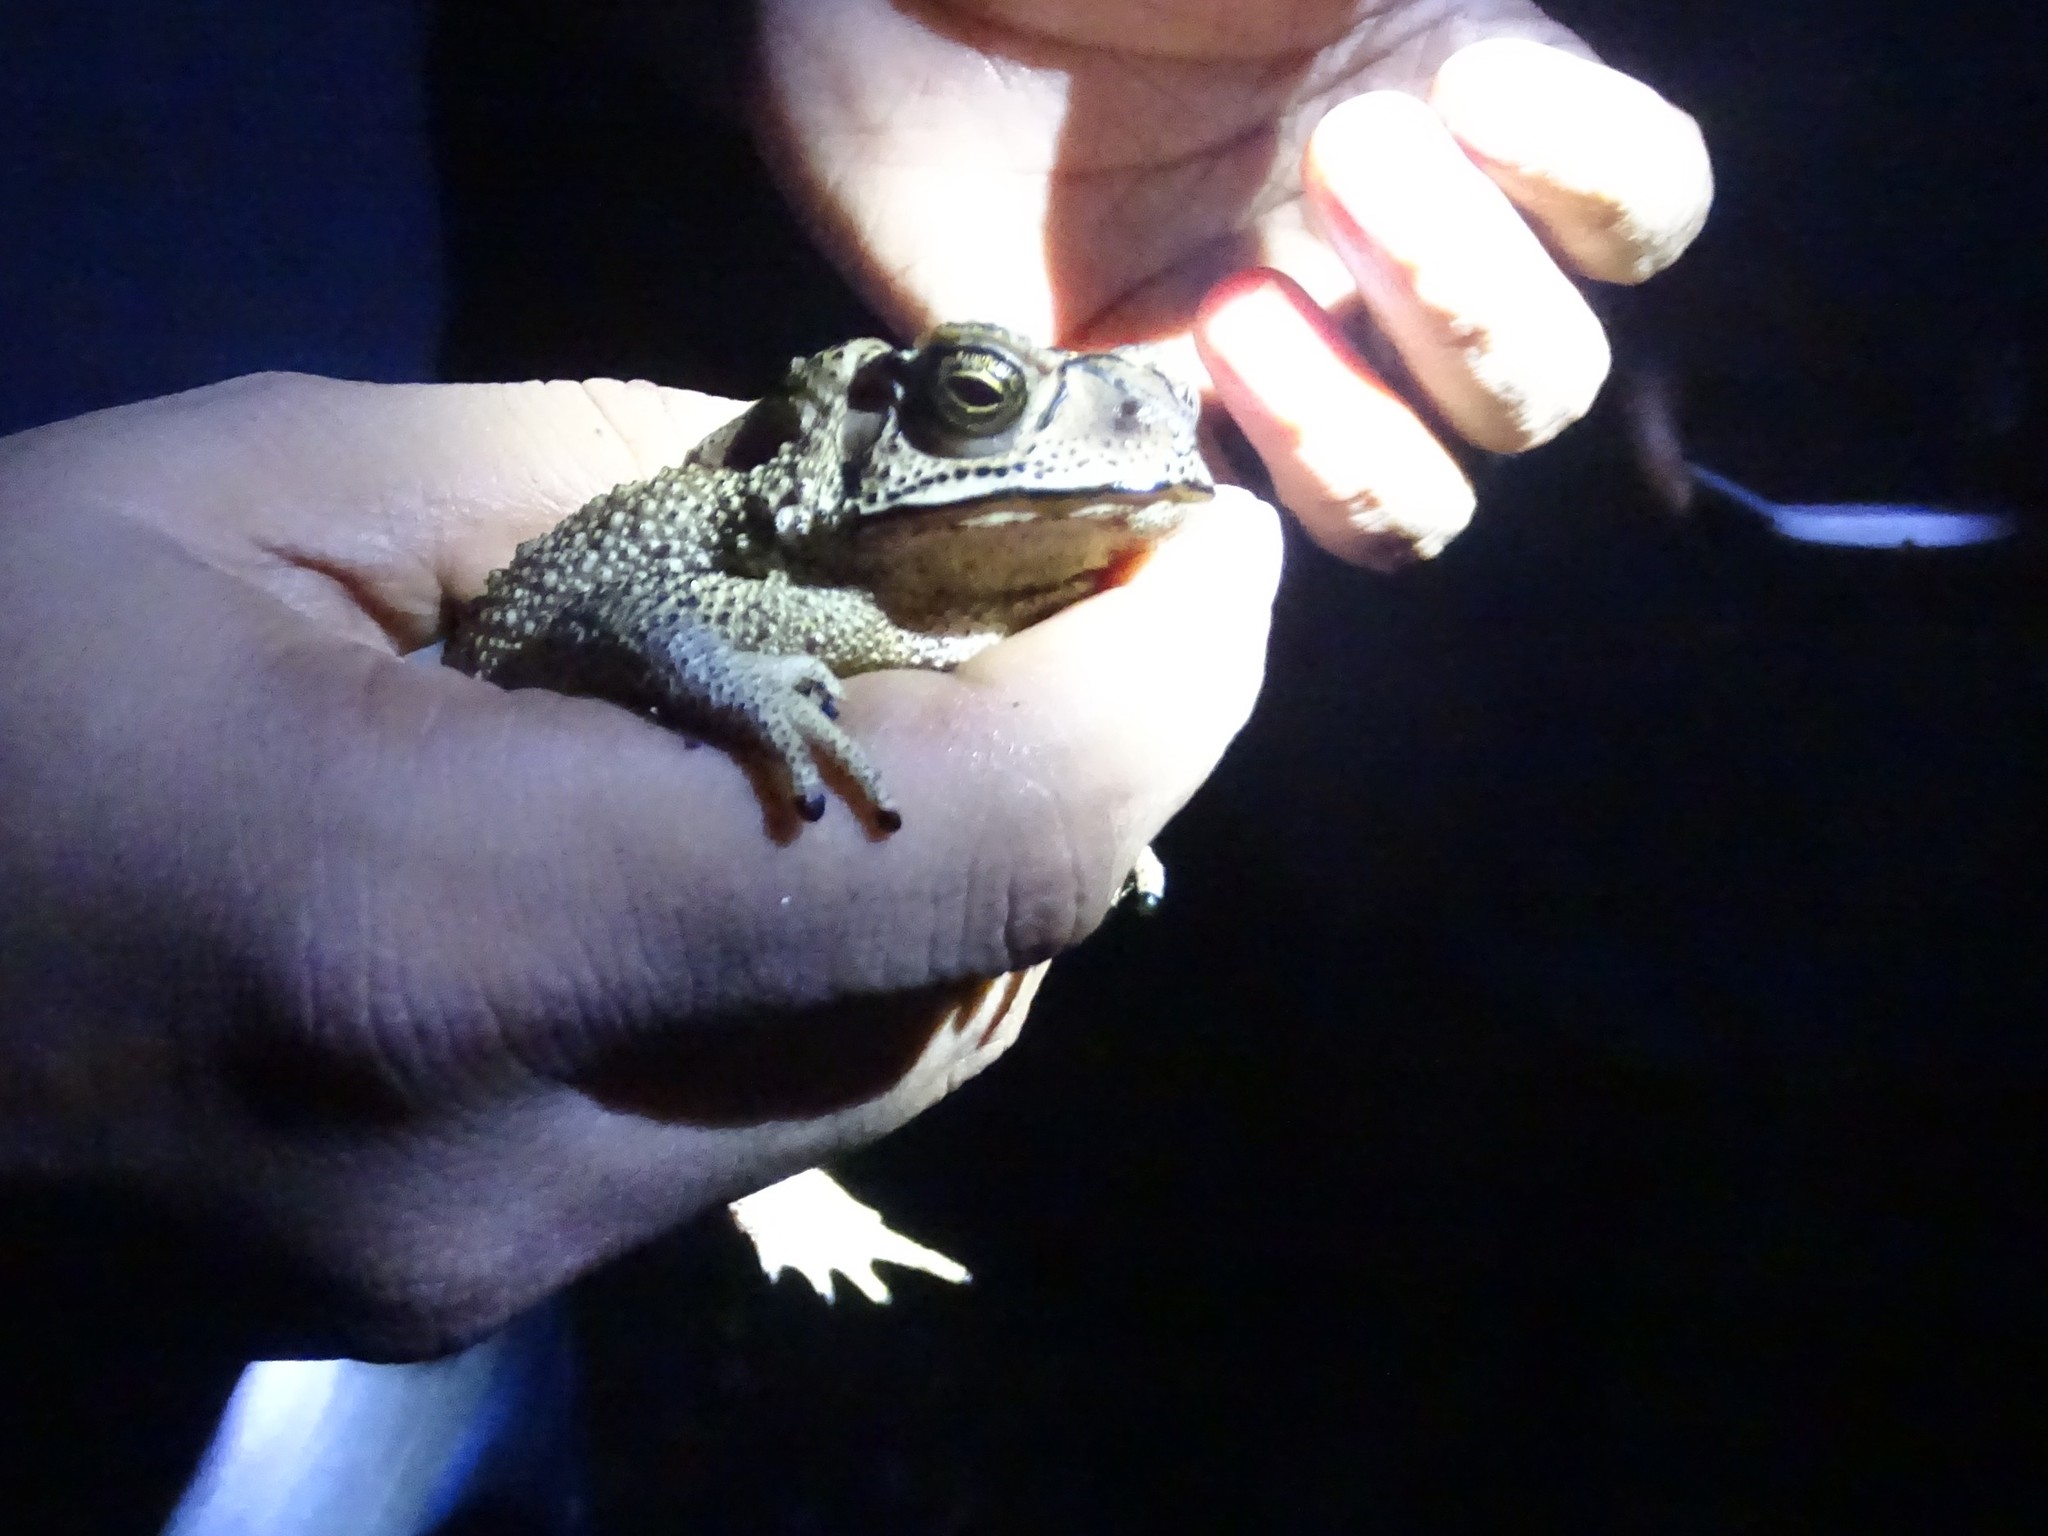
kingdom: Animalia
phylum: Chordata
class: Amphibia
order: Anura
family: Bufonidae
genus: Duttaphrynus
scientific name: Duttaphrynus melanostictus
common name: Common sunda toad
